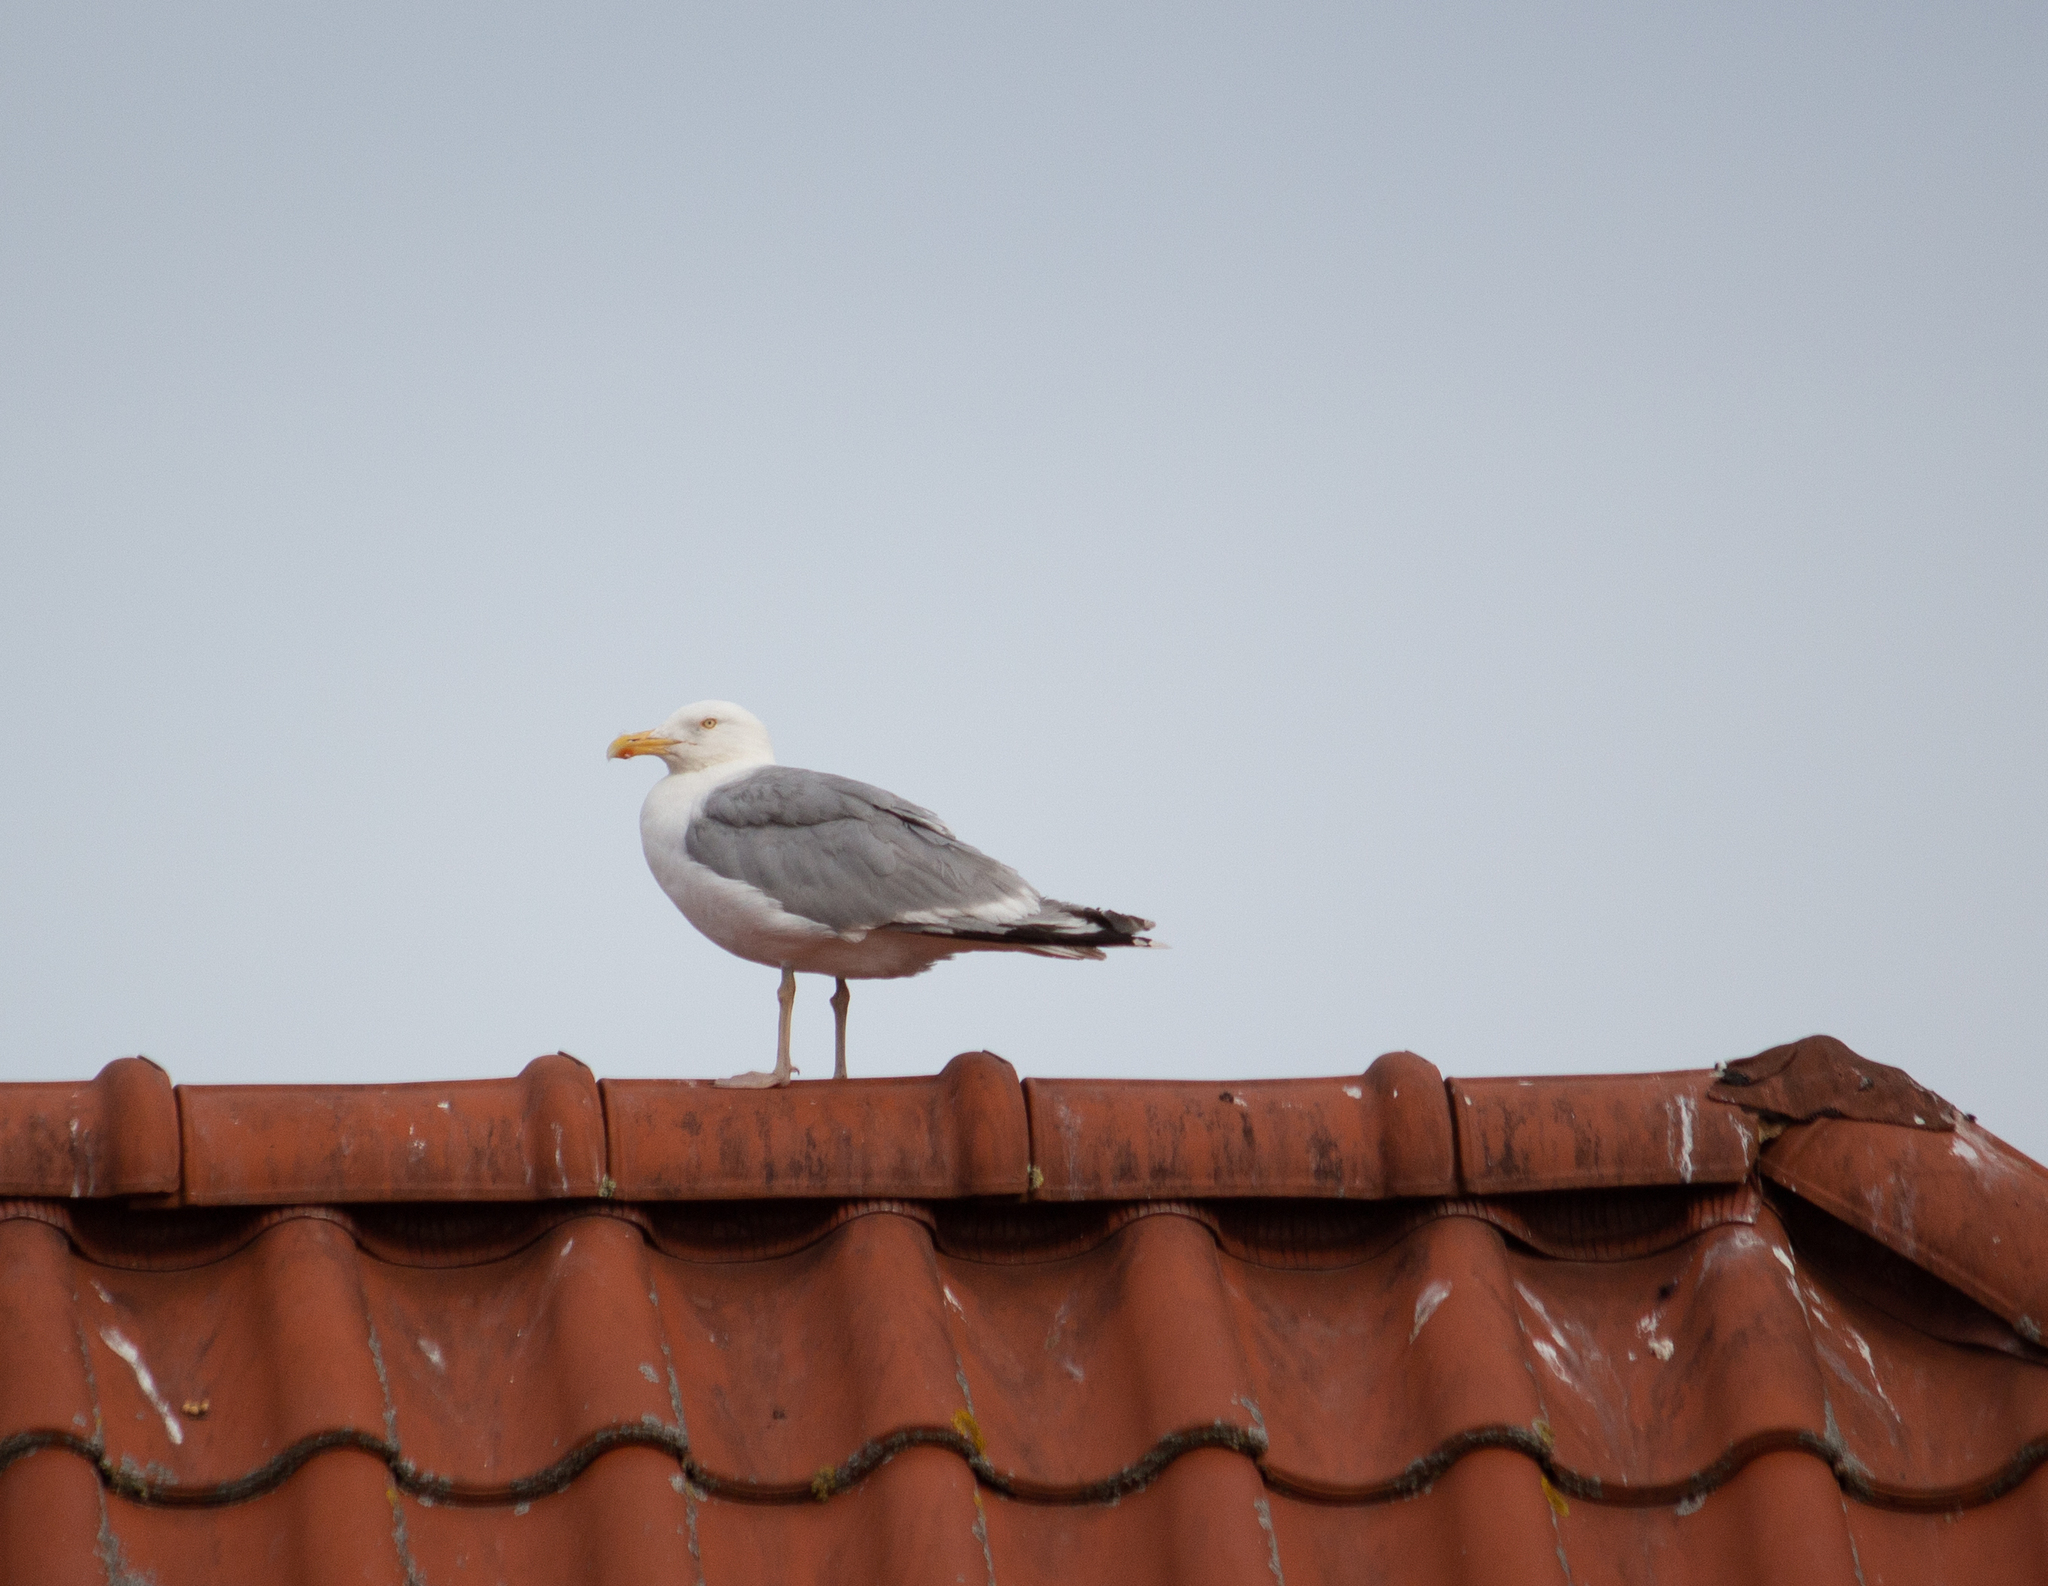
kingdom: Animalia
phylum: Chordata
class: Aves
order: Charadriiformes
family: Laridae
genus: Larus
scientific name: Larus argentatus
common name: Herring gull
